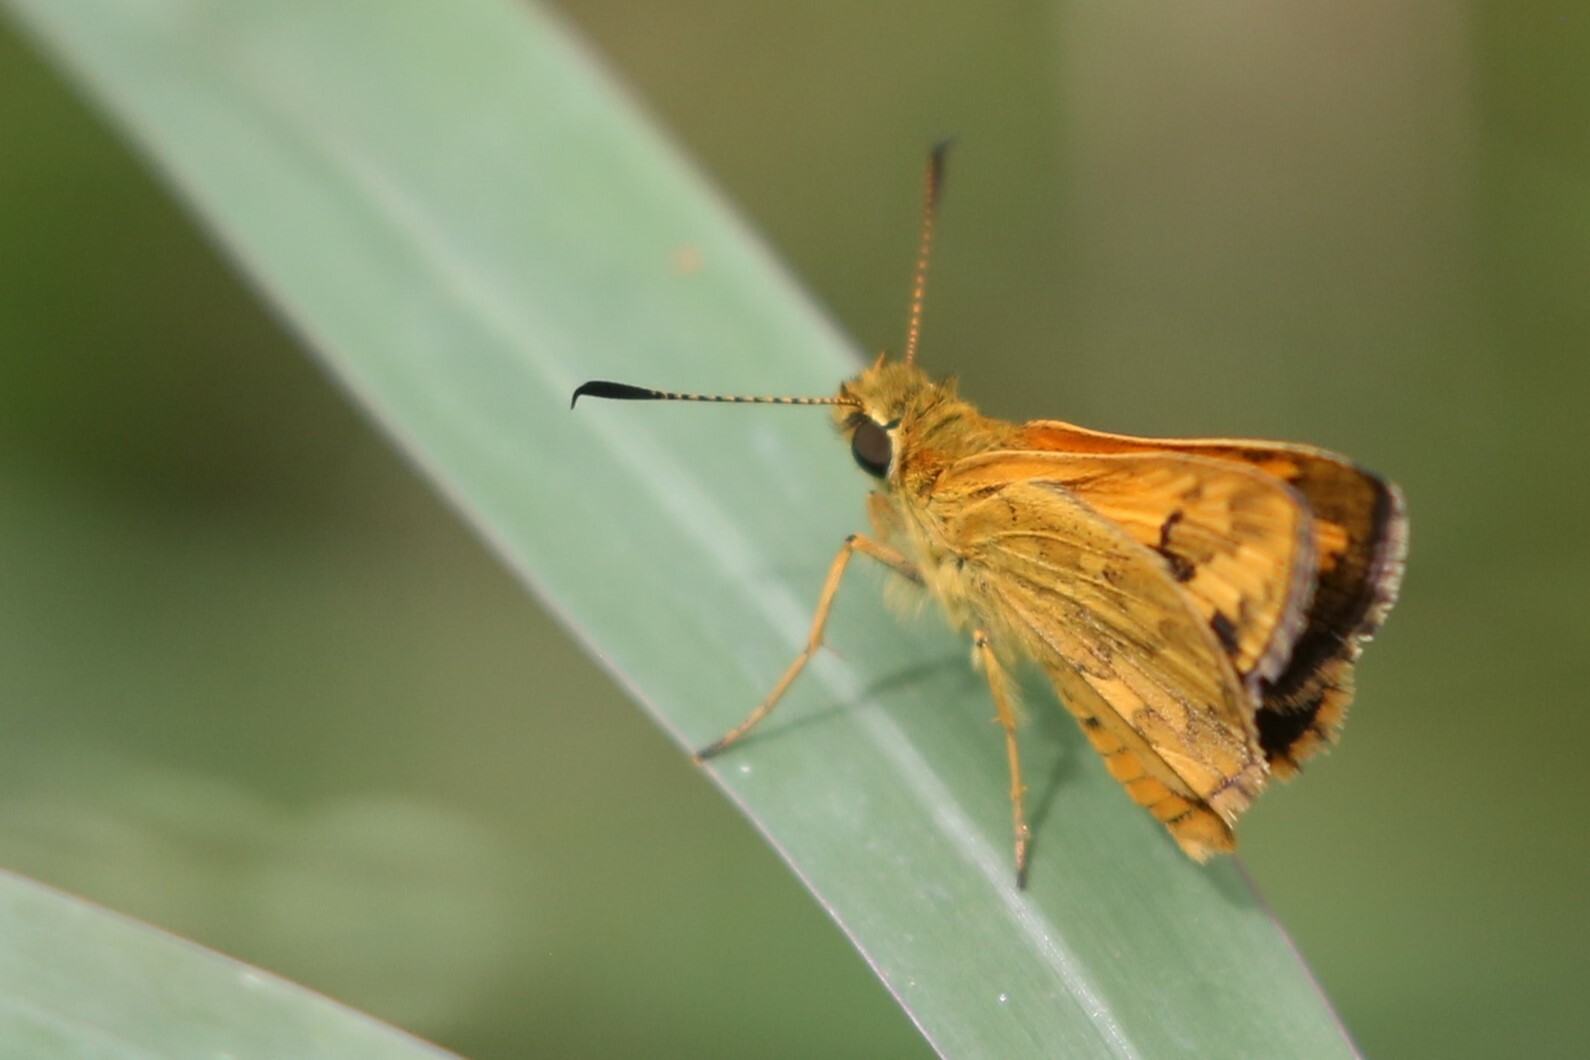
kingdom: Animalia
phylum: Arthropoda
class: Insecta
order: Lepidoptera
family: Hesperiidae
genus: Suniana
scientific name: Suniana sunias
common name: Wide-brand grass-dart
